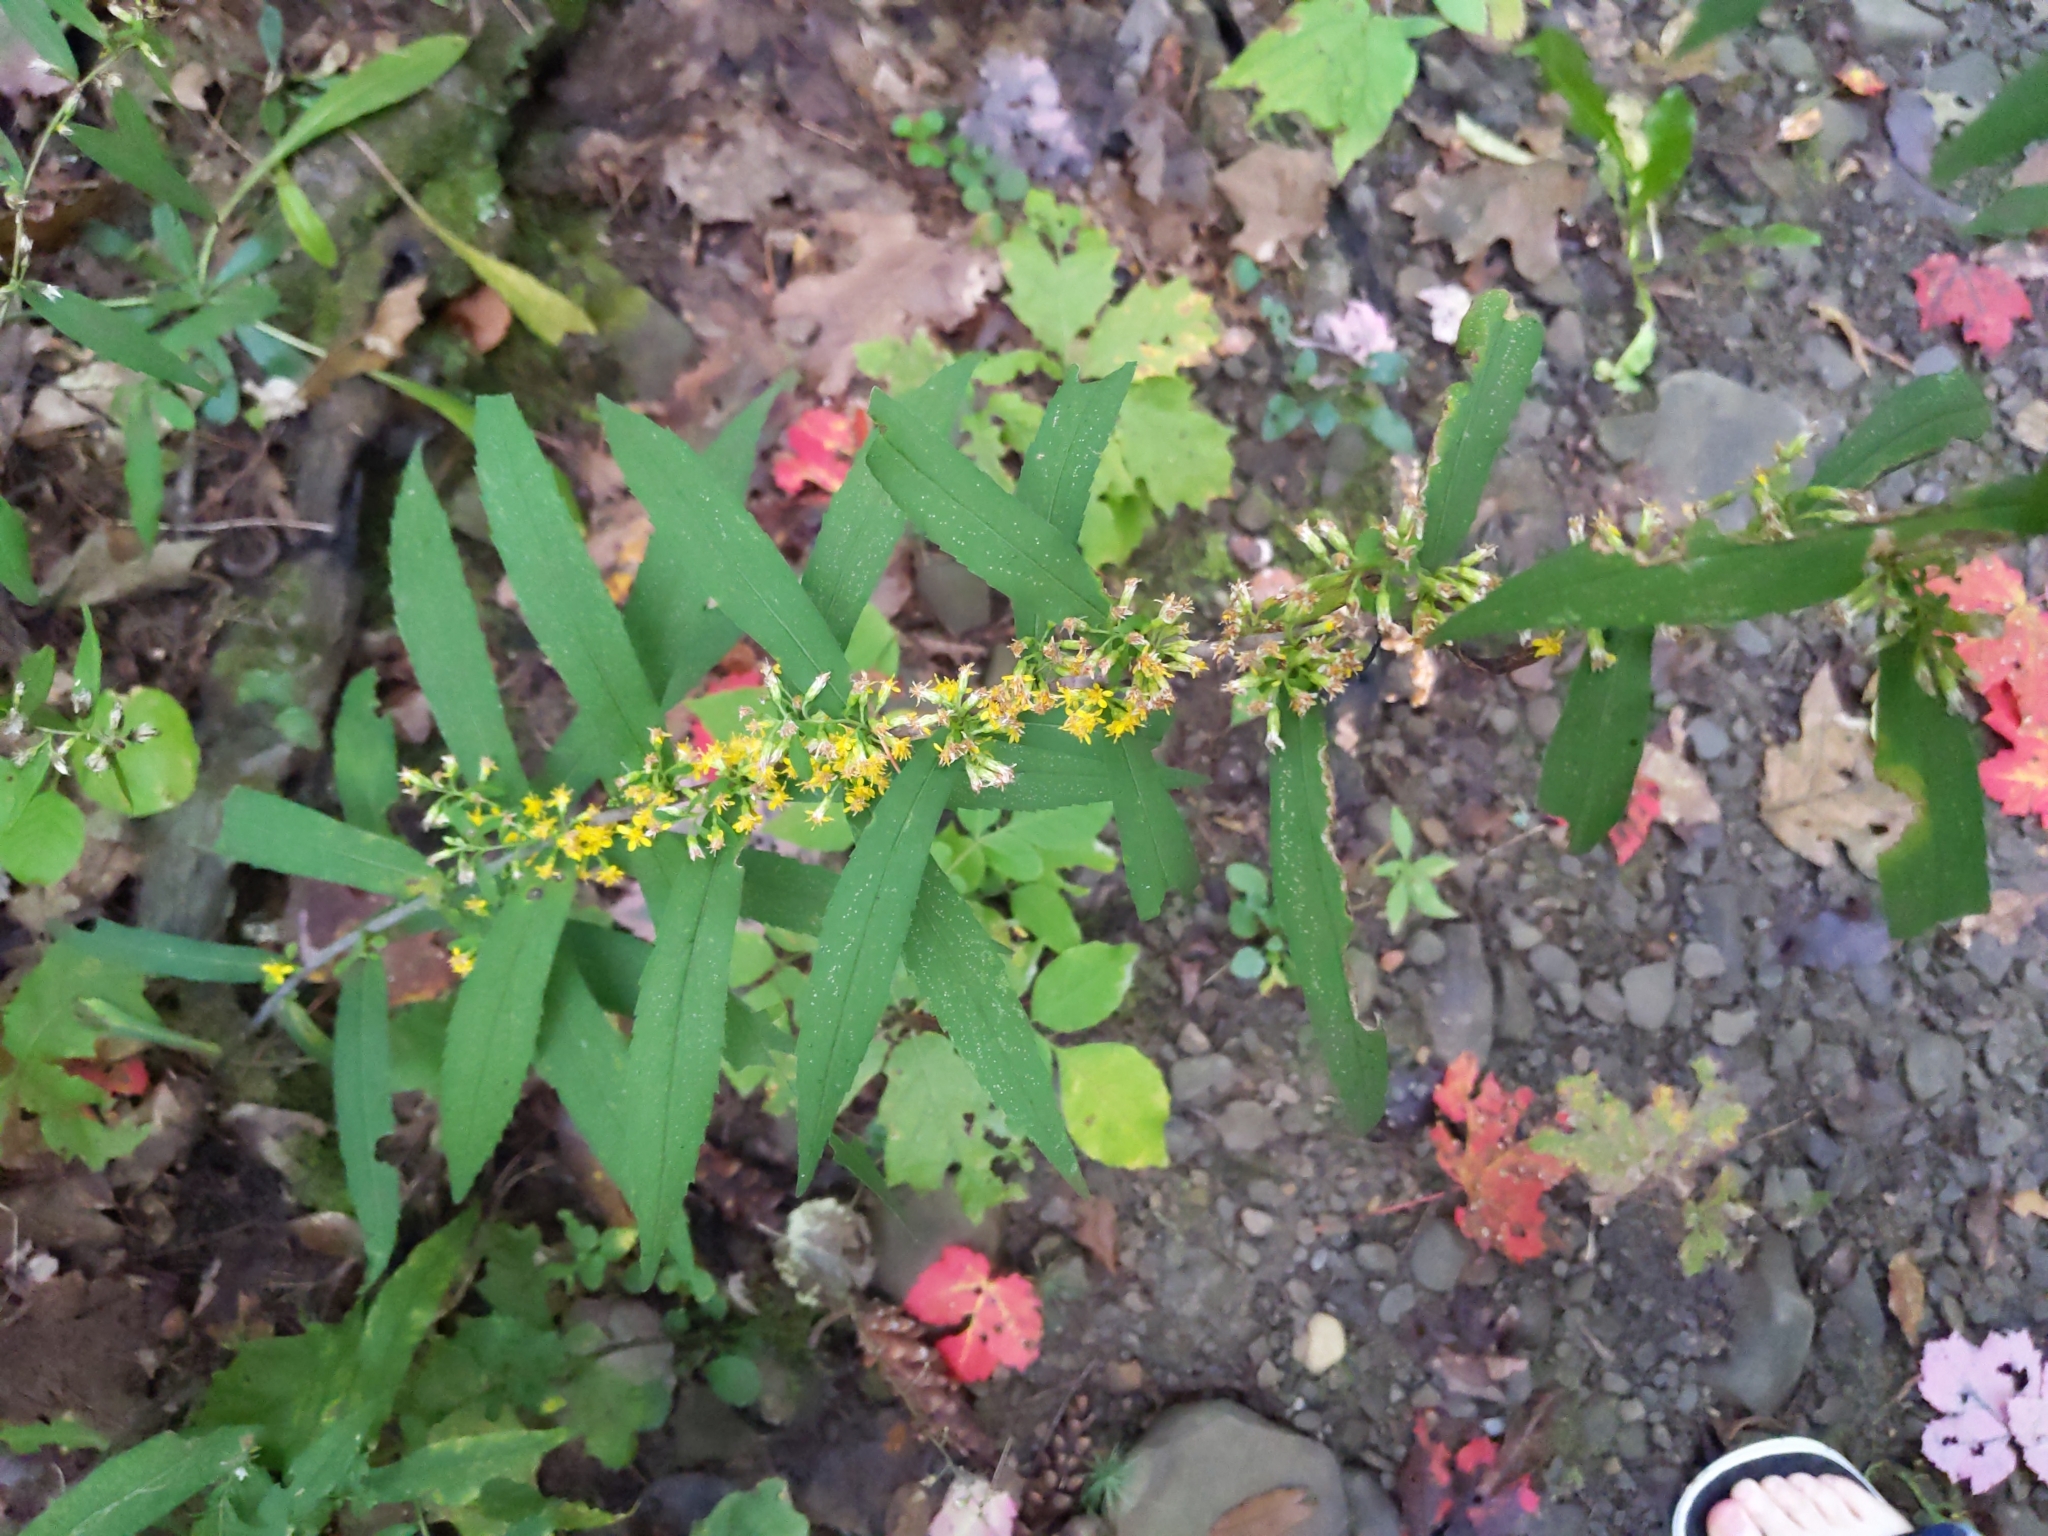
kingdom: Plantae
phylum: Tracheophyta
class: Magnoliopsida
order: Asterales
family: Asteraceae
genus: Solidago
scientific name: Solidago caesia
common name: Woodland goldenrod
